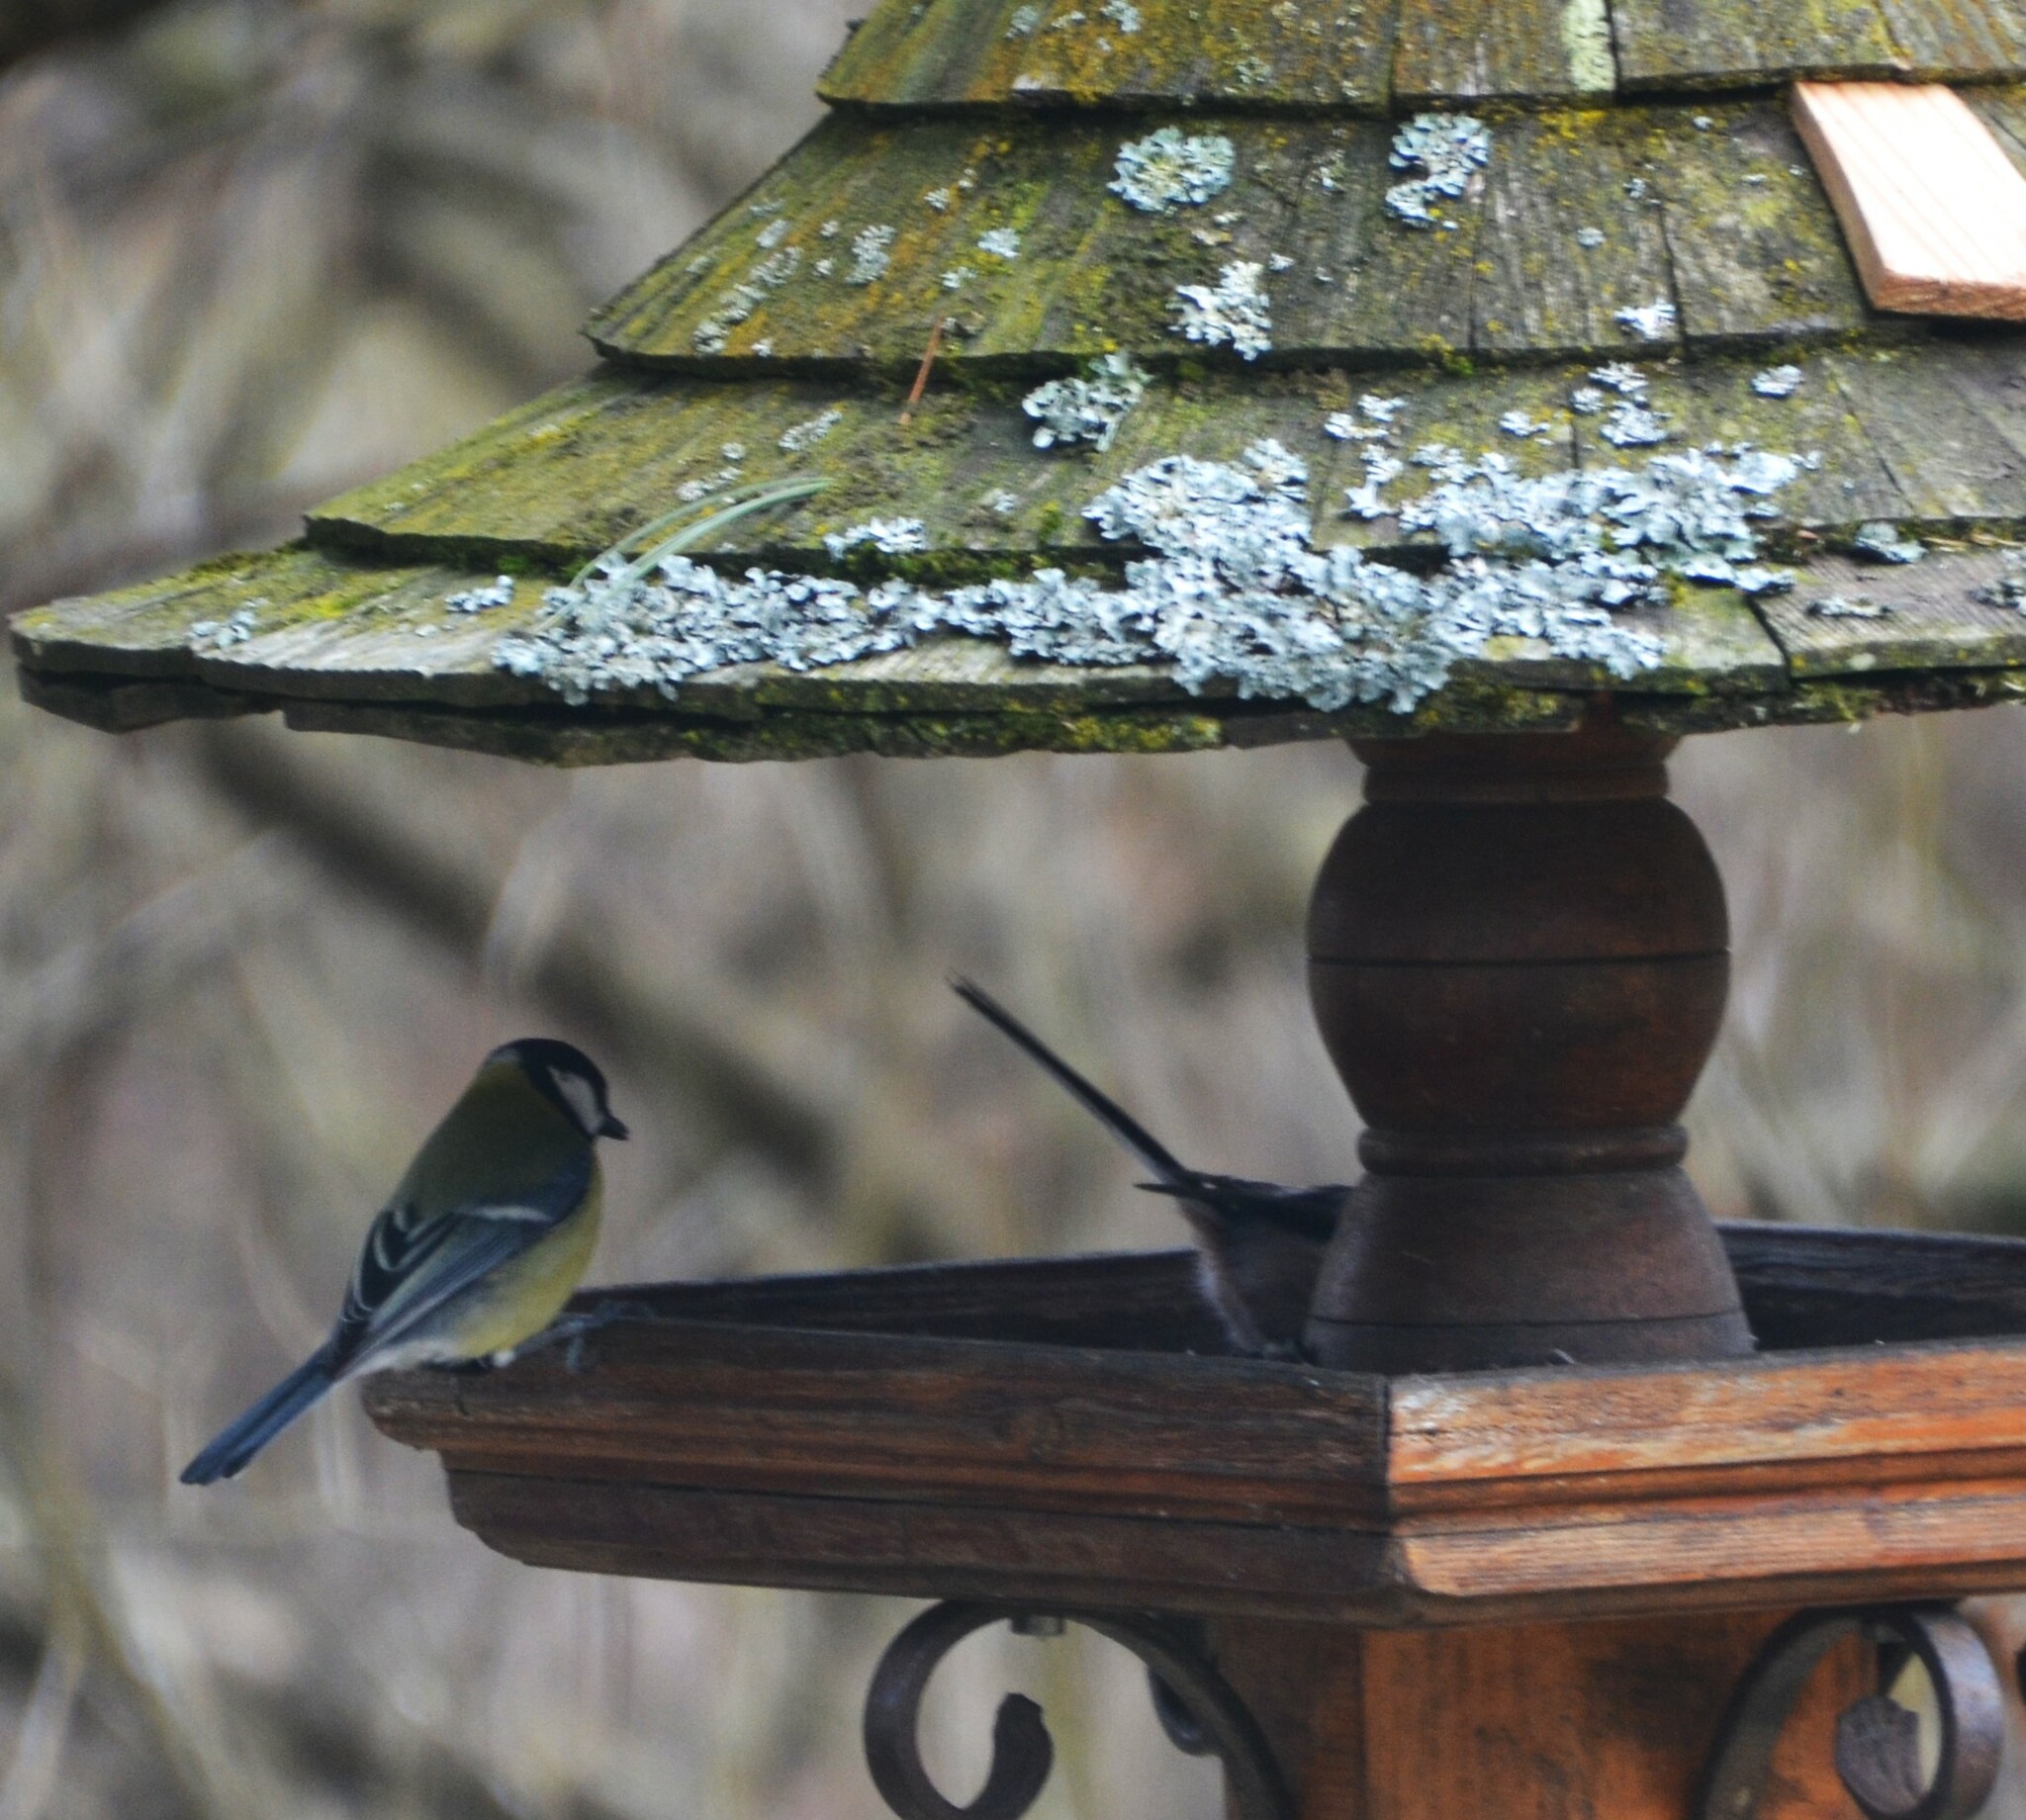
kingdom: Animalia
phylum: Chordata
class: Aves
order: Passeriformes
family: Aegithalidae
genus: Aegithalos
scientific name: Aegithalos caudatus
